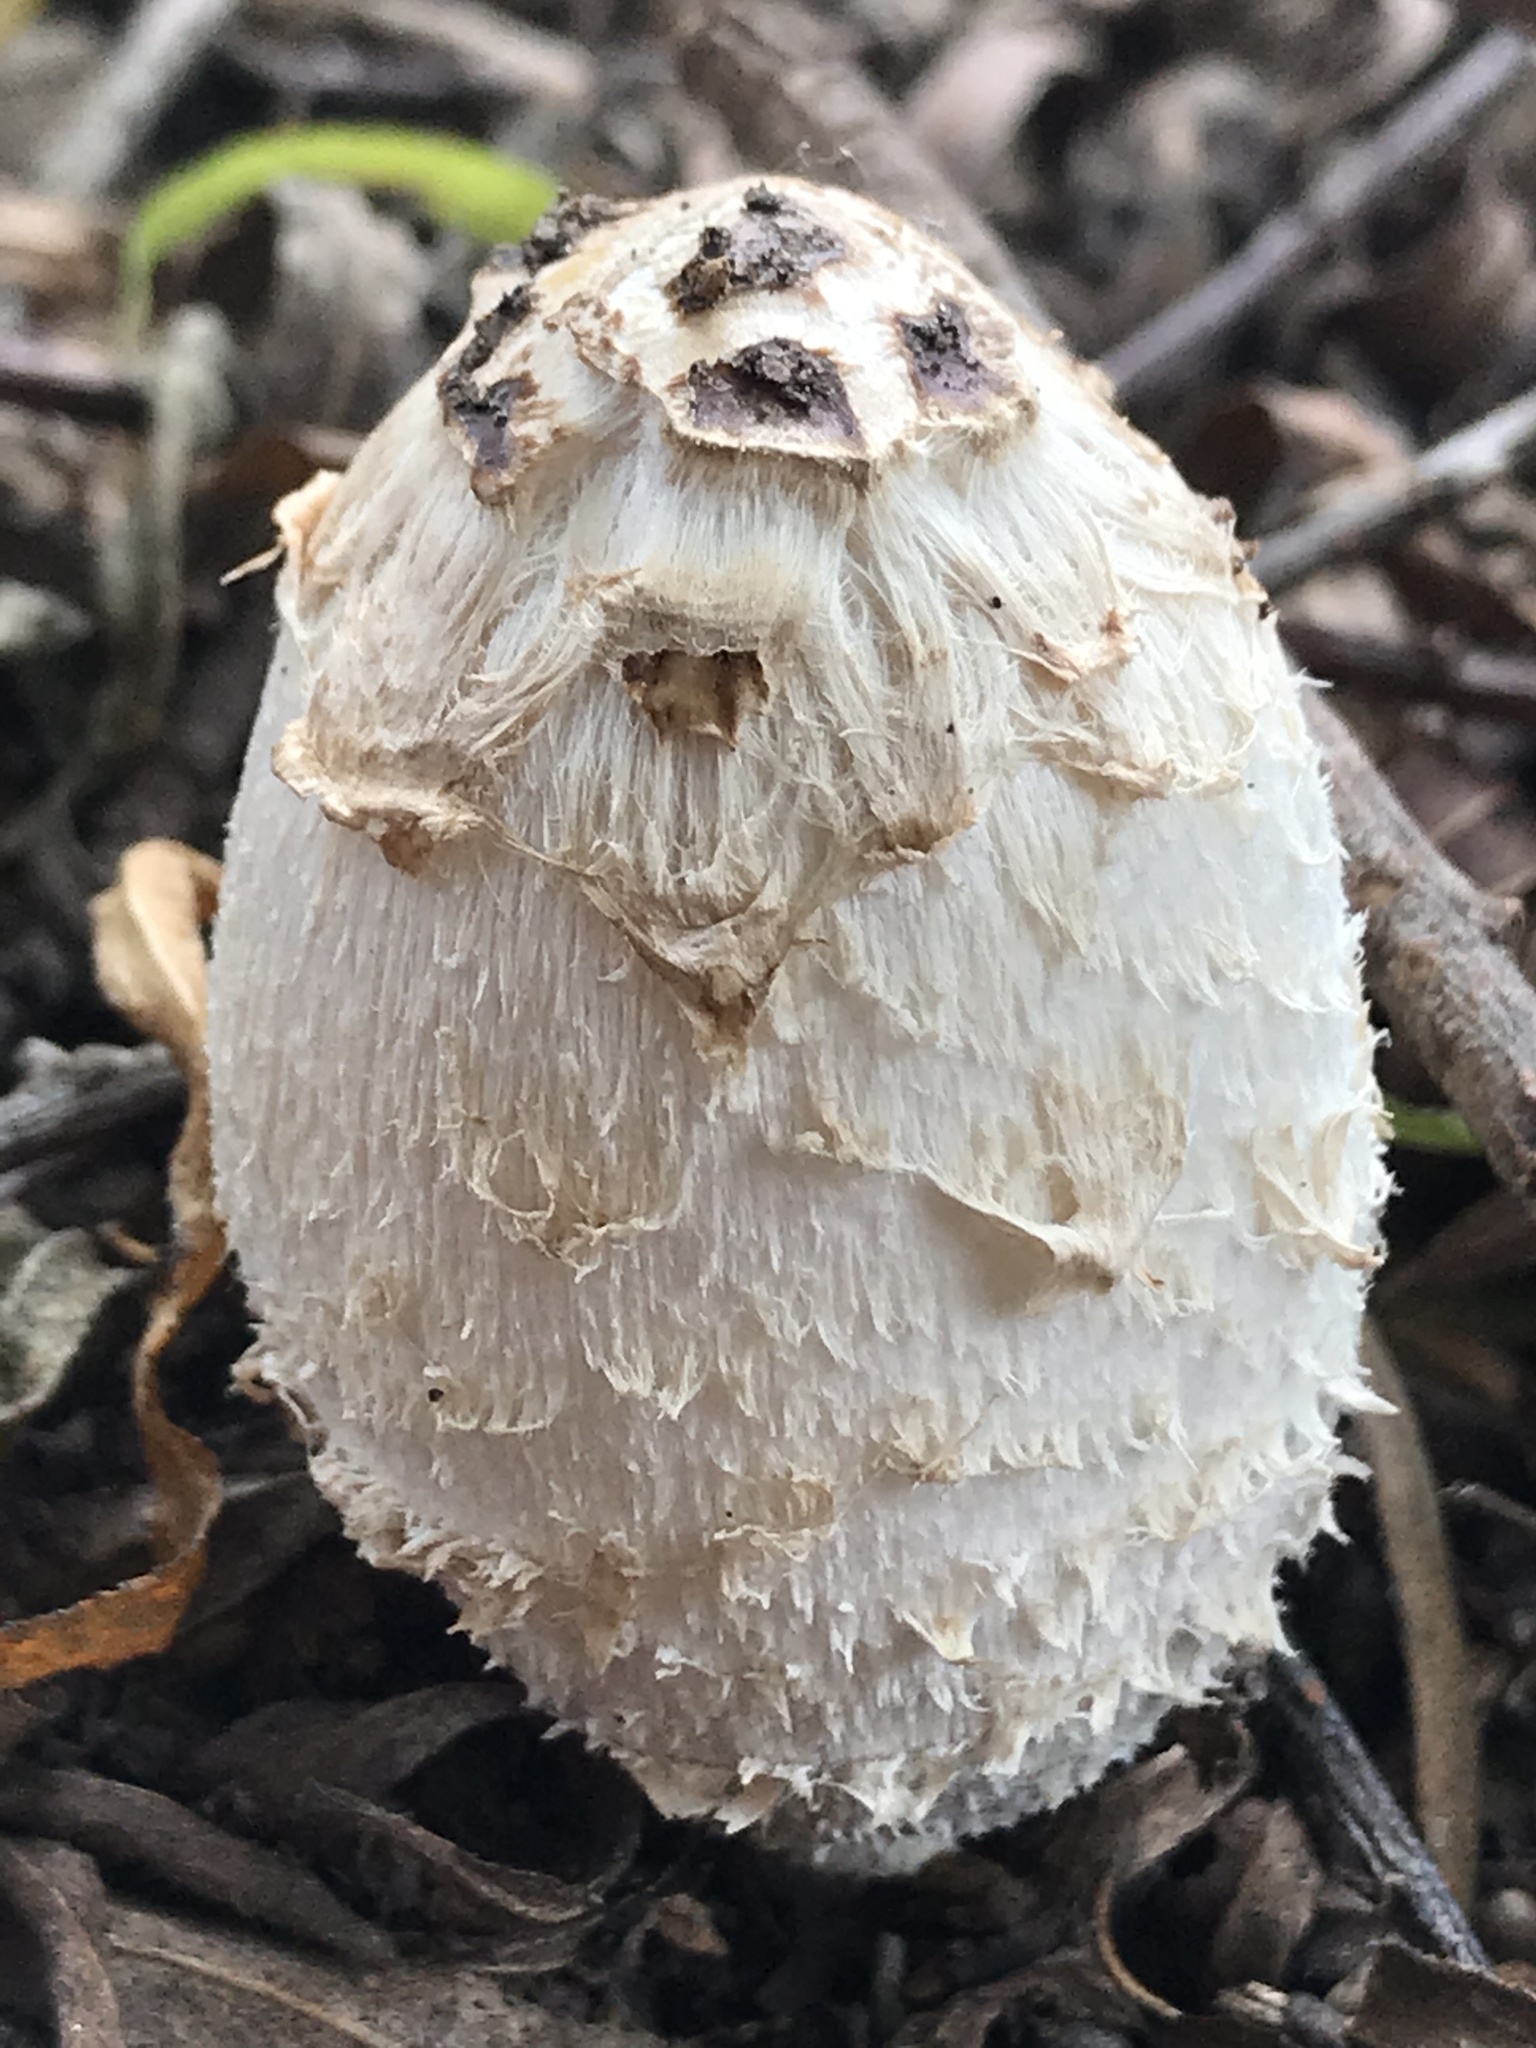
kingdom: Fungi
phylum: Basidiomycota
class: Agaricomycetes
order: Agaricales
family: Agaricaceae
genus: Coprinus
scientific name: Coprinus comatus
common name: Lawyer's wig
